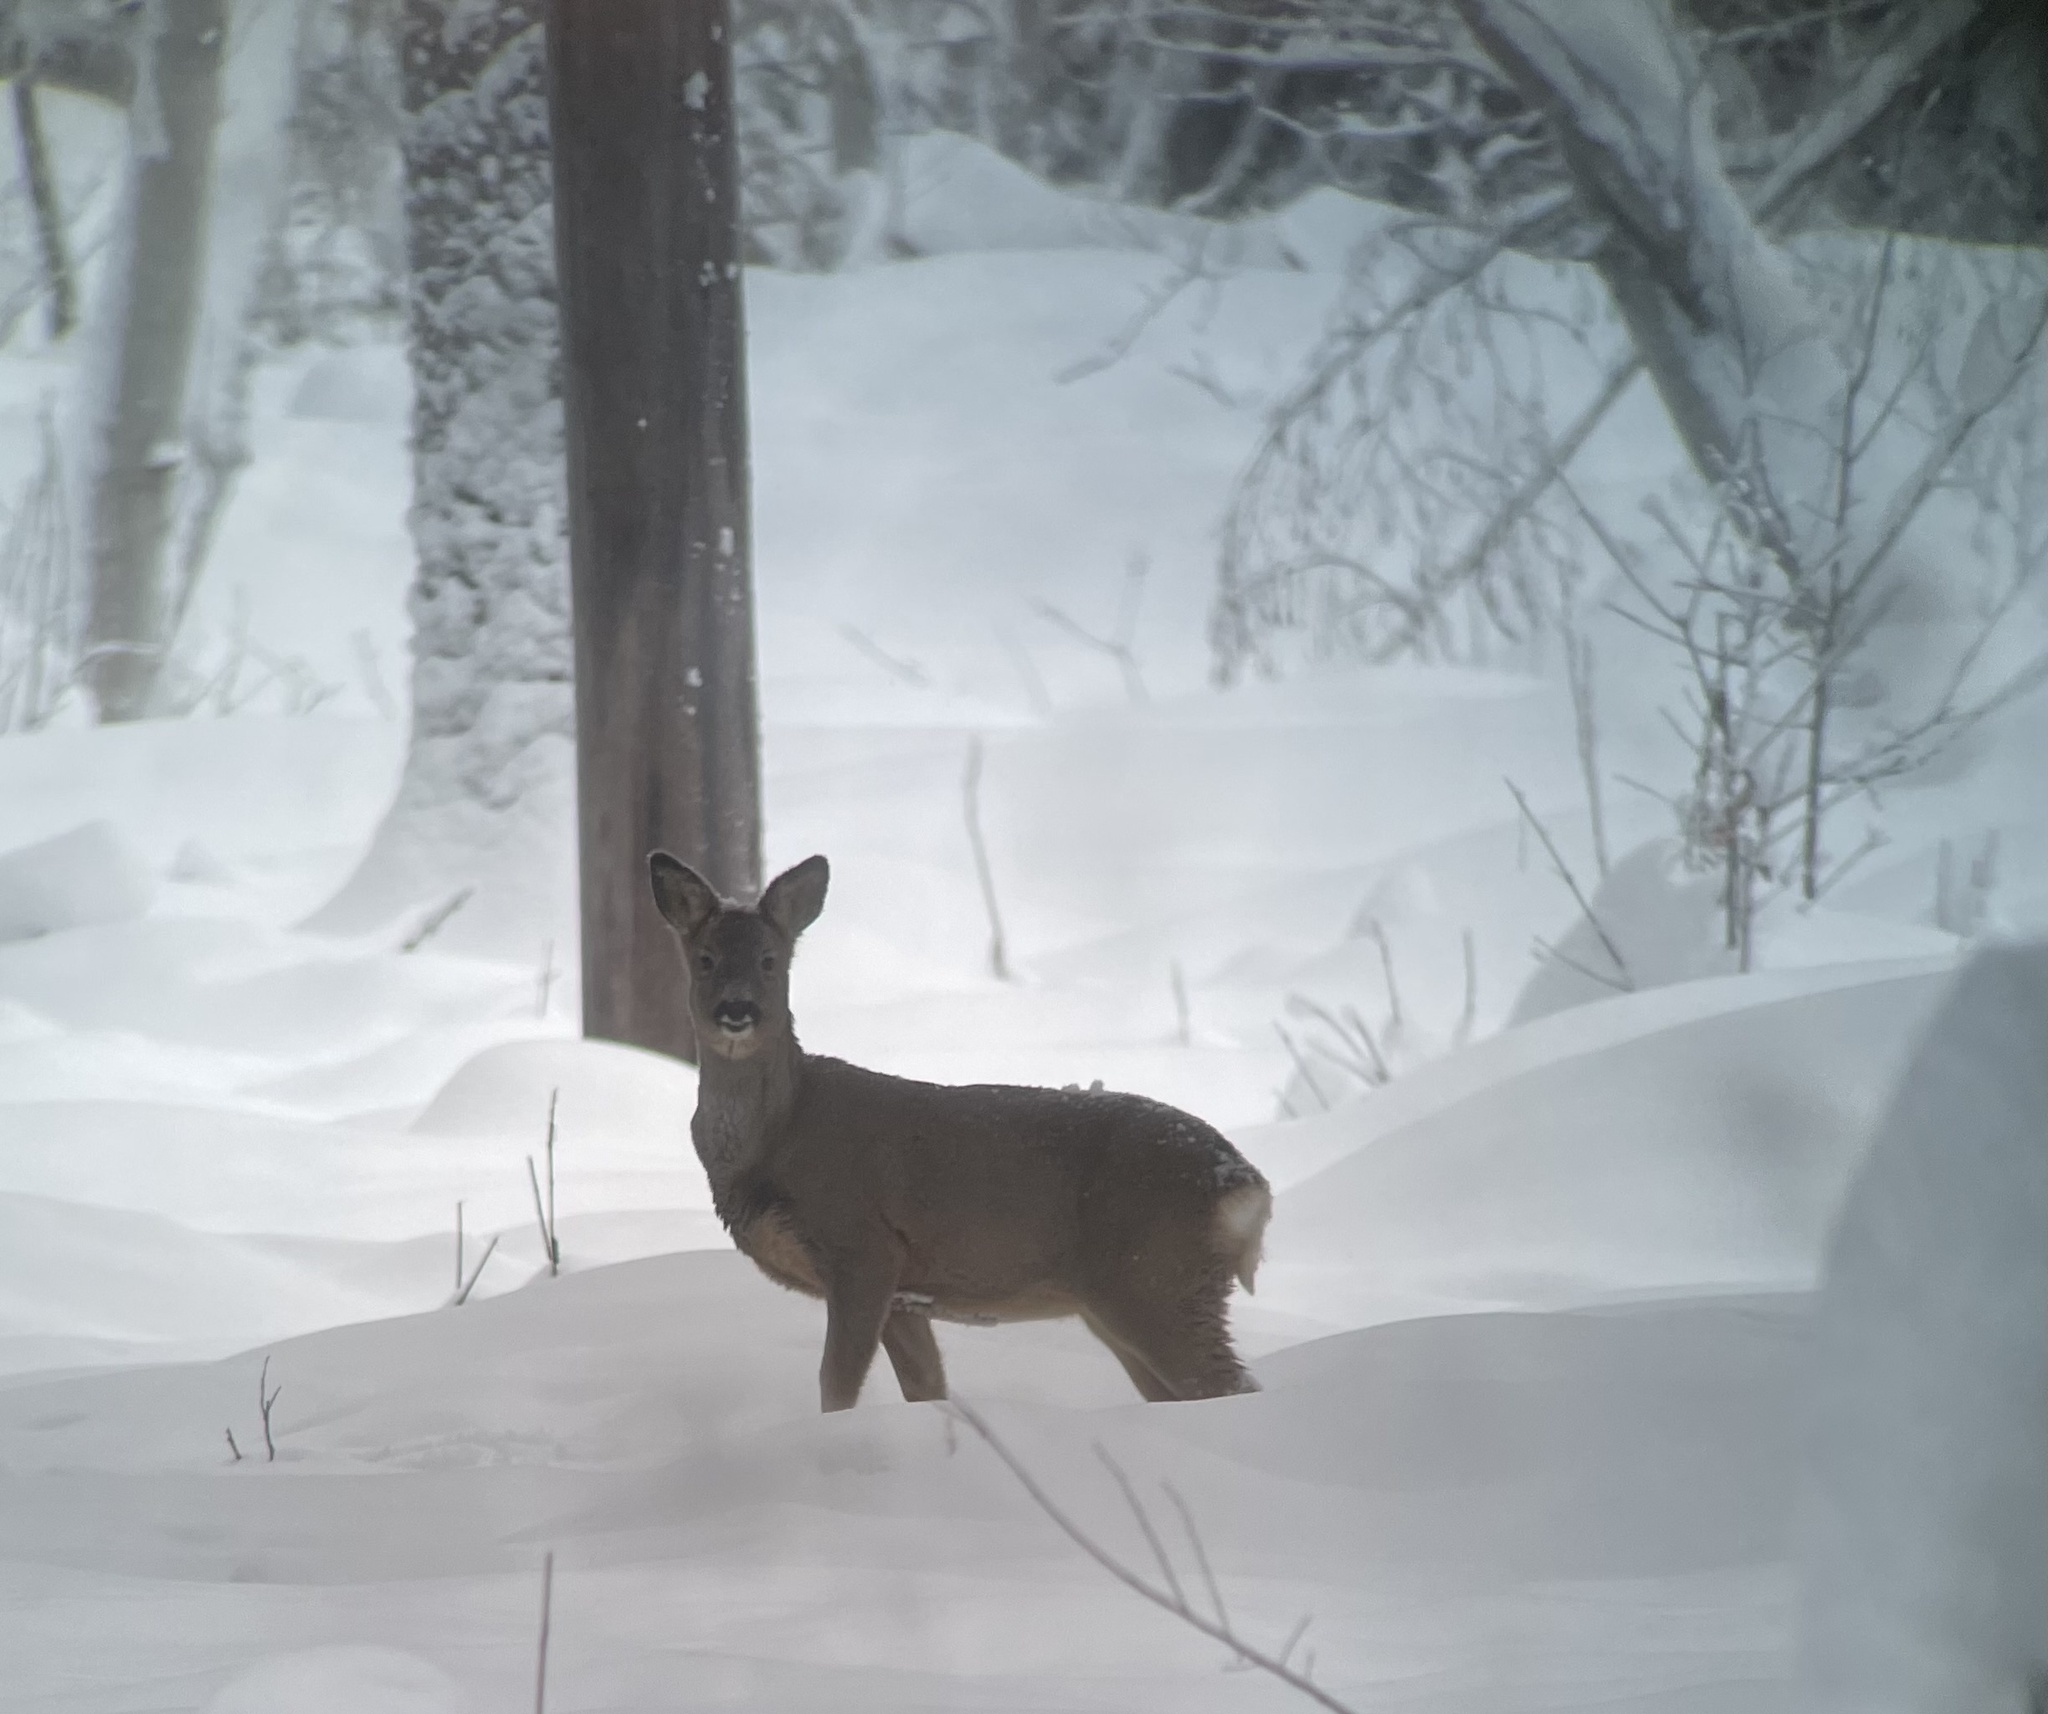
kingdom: Animalia
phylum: Chordata
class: Mammalia
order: Artiodactyla
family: Cervidae
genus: Capreolus
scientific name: Capreolus capreolus
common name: Western roe deer
